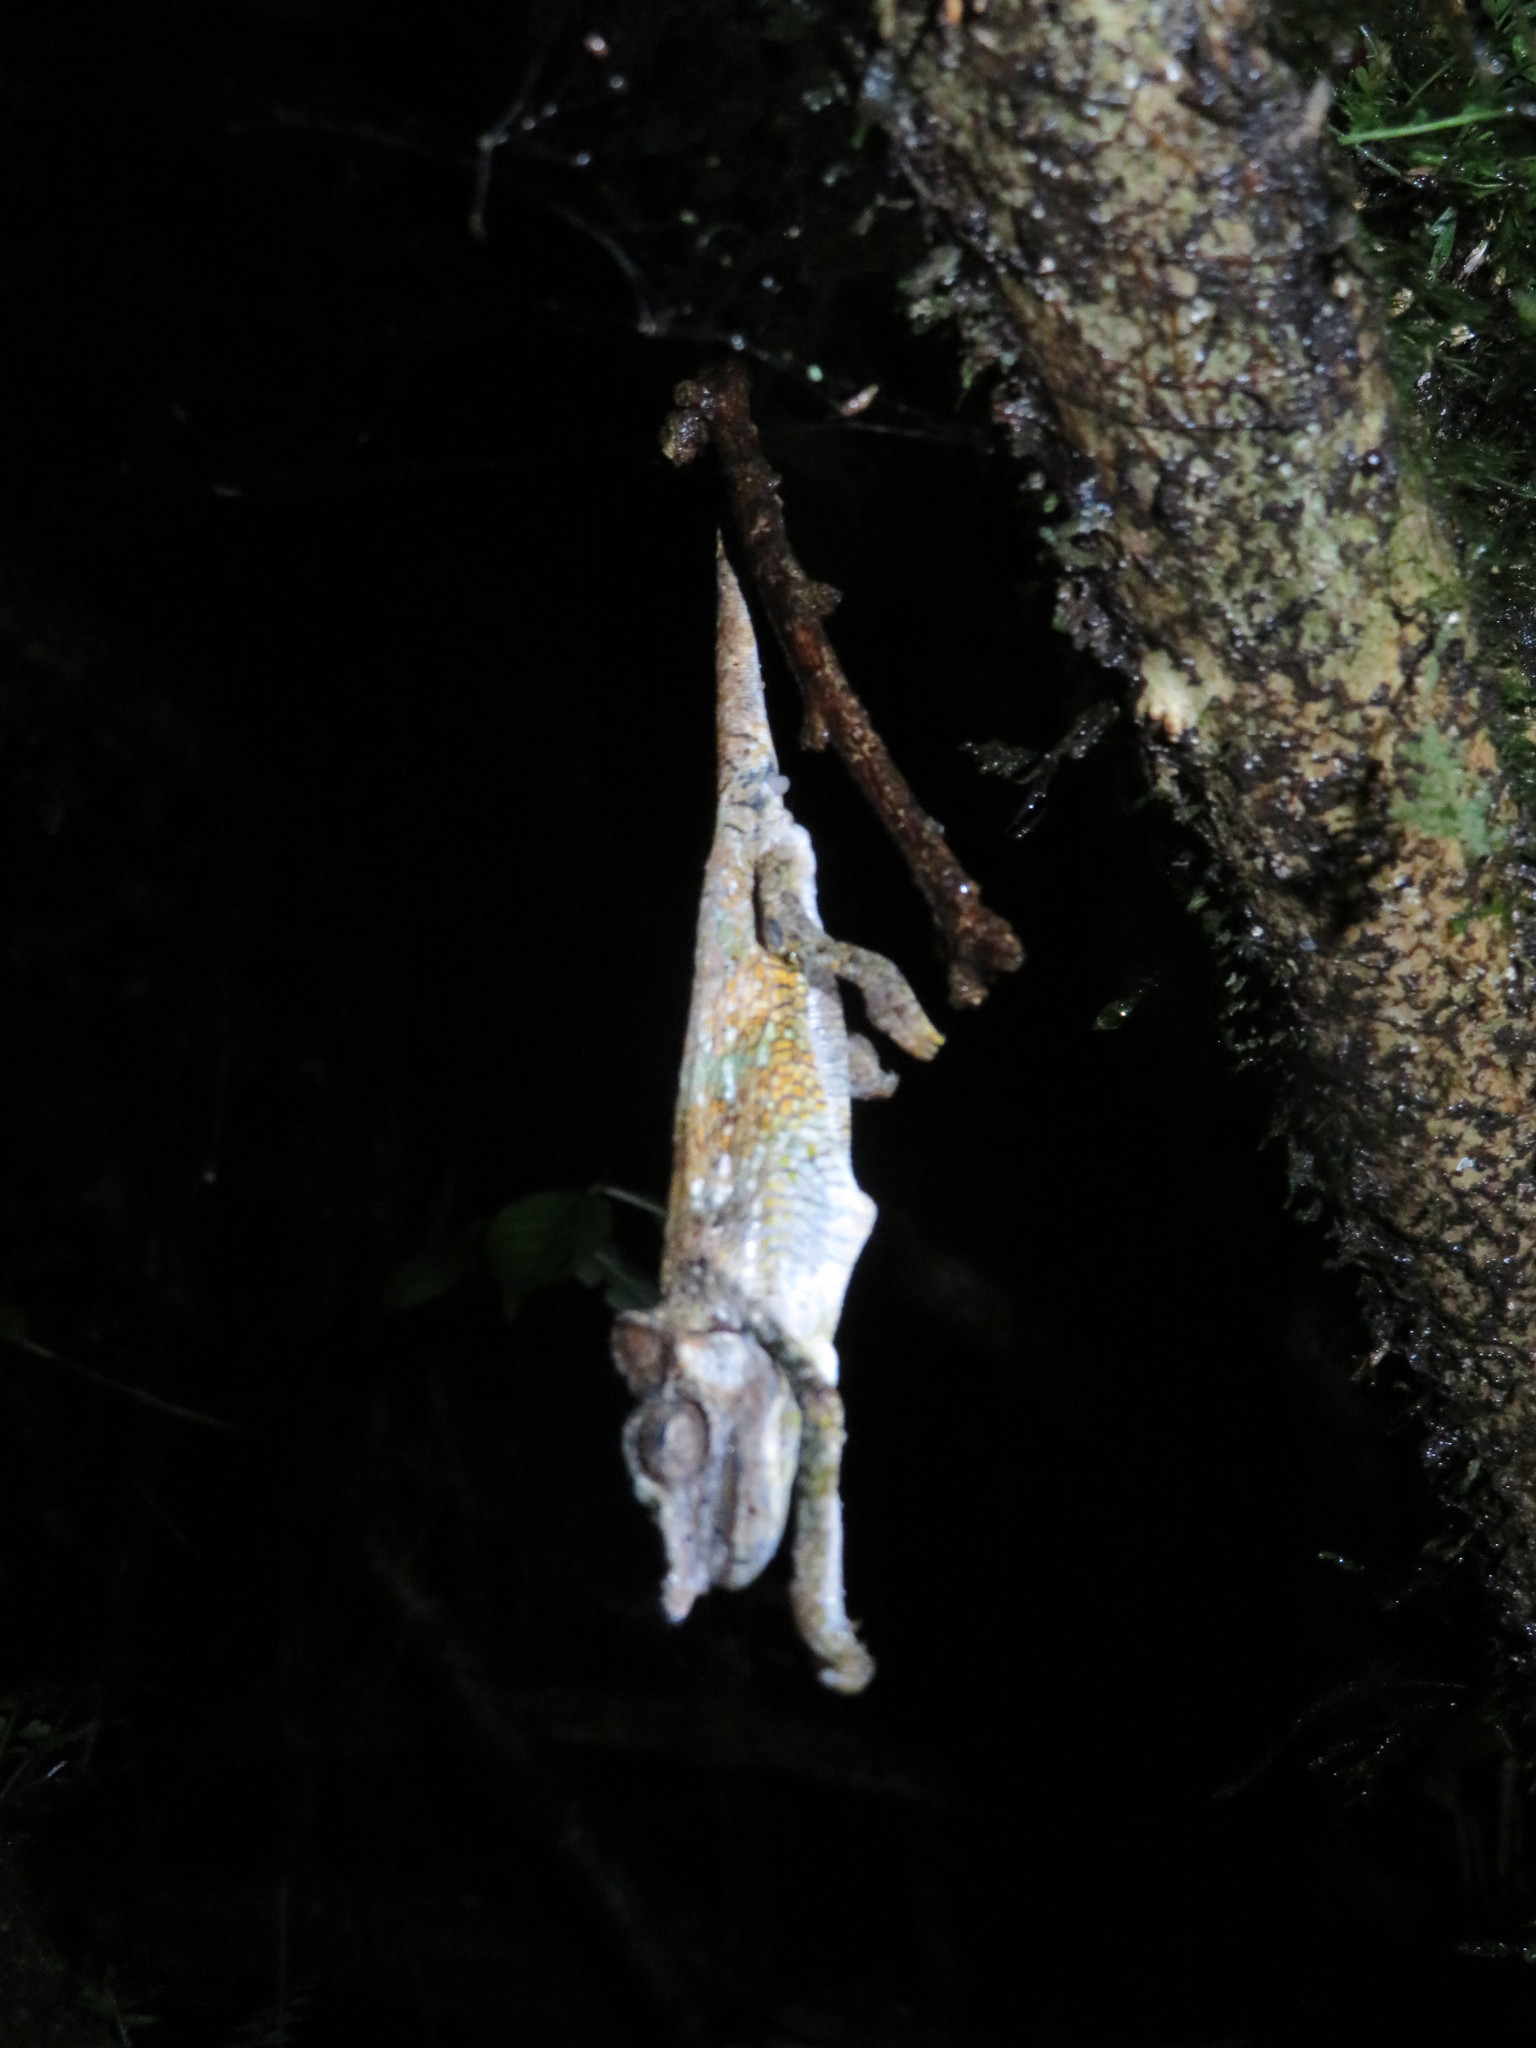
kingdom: Animalia
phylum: Chordata
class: Squamata
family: Chamaeleonidae
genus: Kinyongia
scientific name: Kinyongia msuyae
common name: Msuya’s forest chameleon
